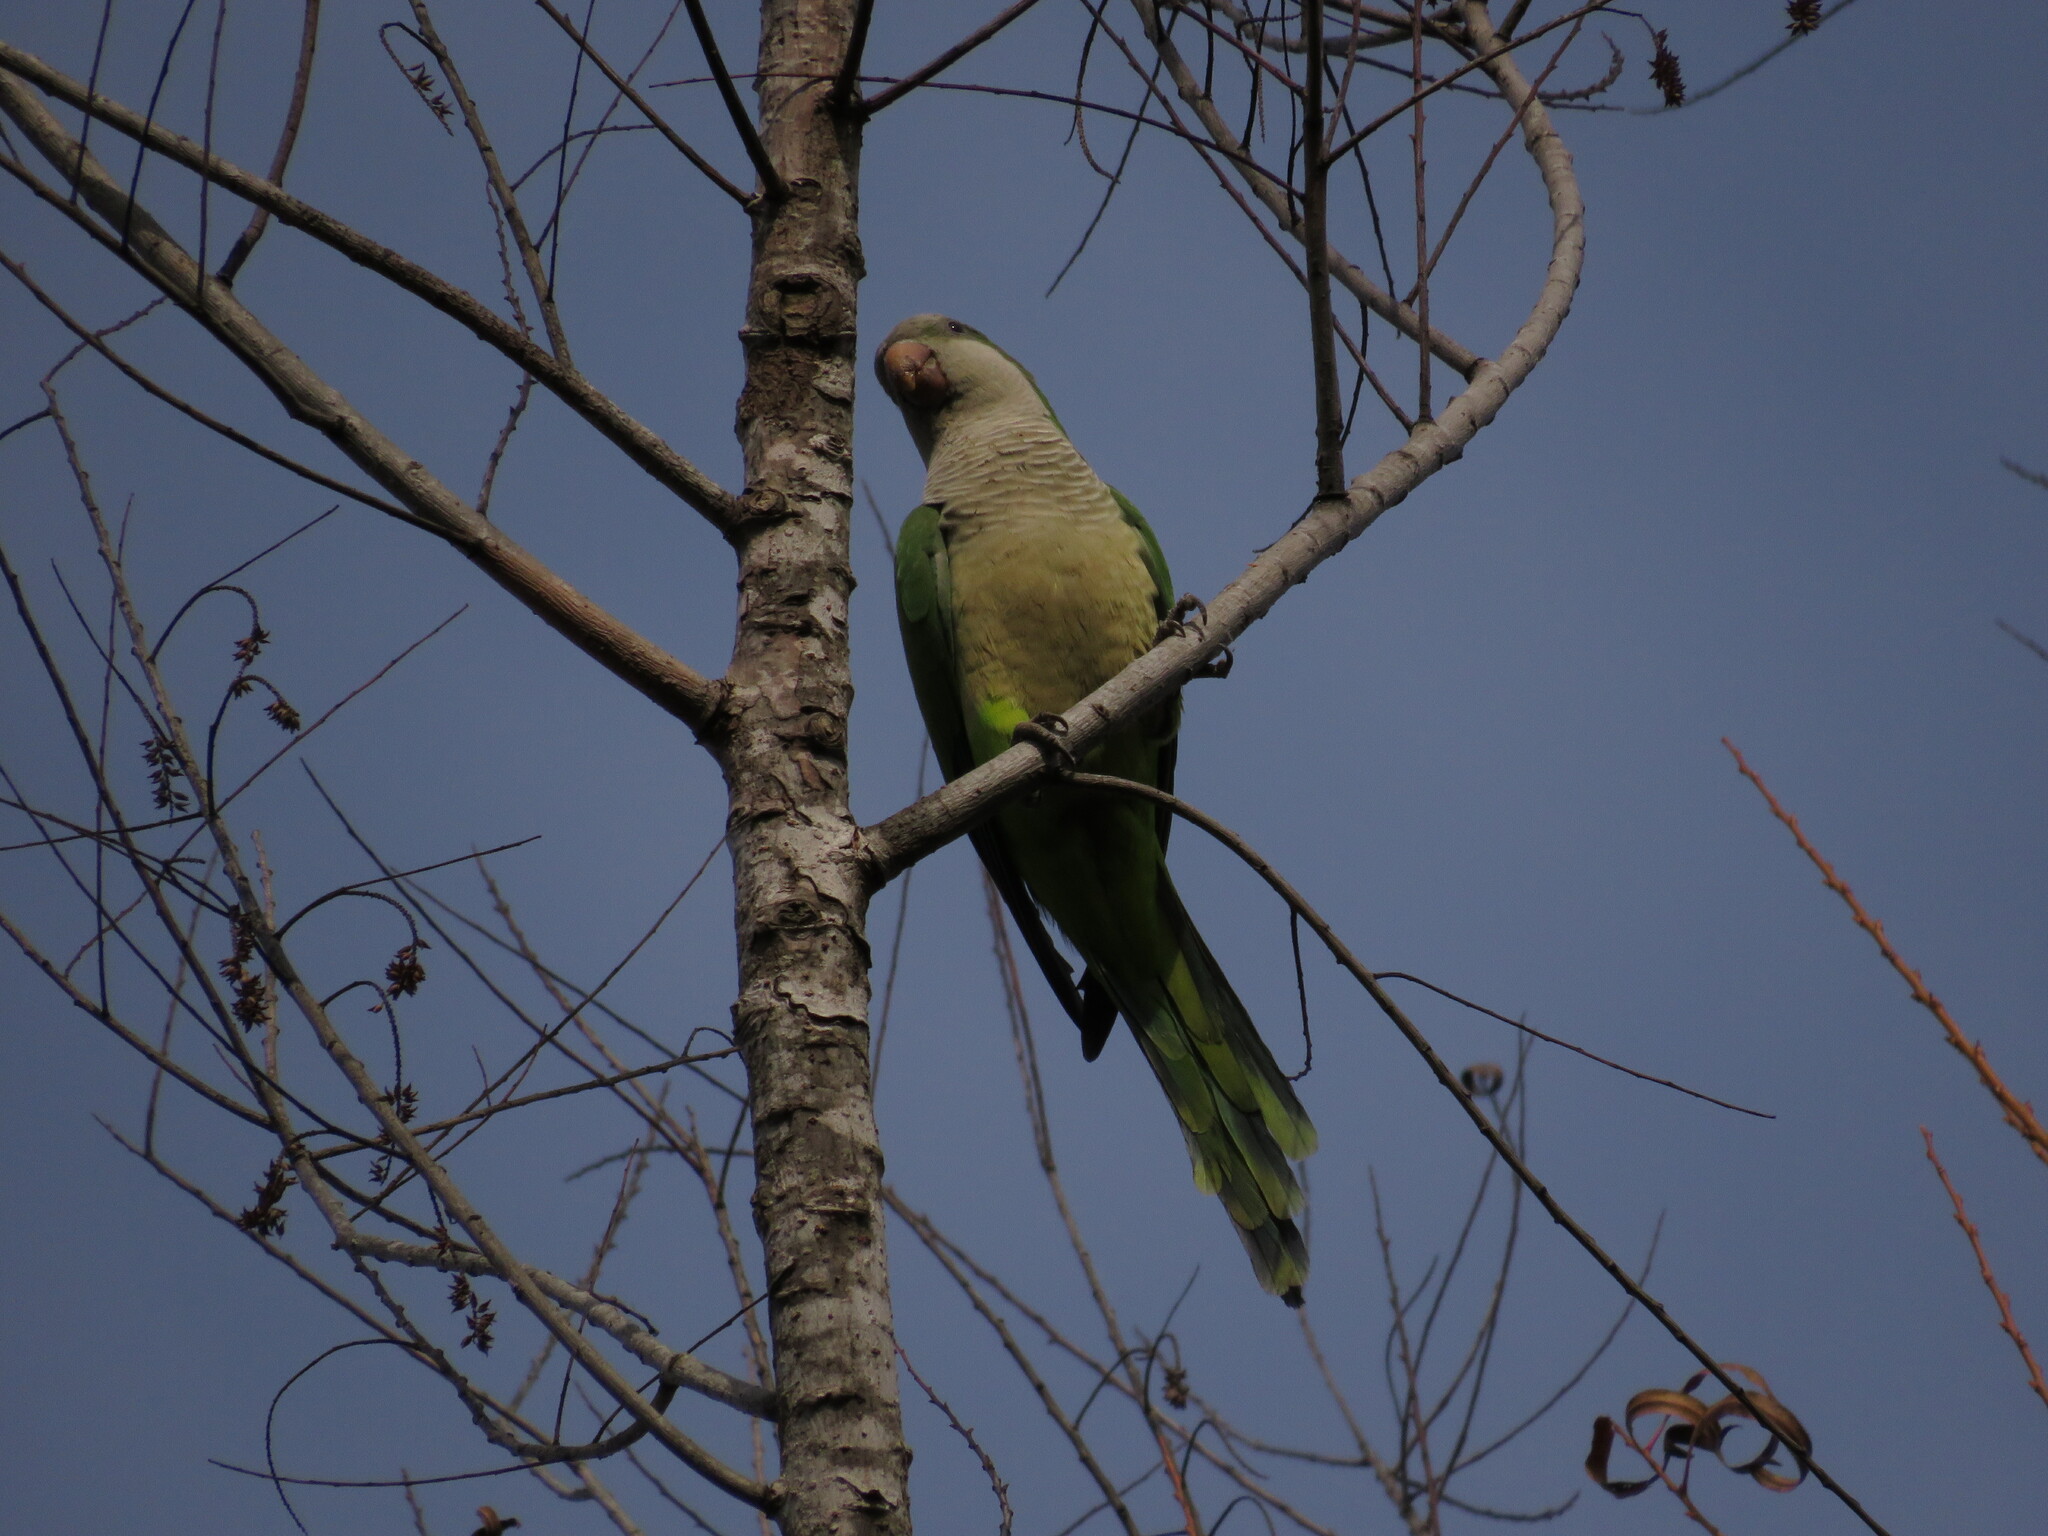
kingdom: Animalia
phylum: Chordata
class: Aves
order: Psittaciformes
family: Psittacidae
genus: Myiopsitta
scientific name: Myiopsitta monachus
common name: Monk parakeet
